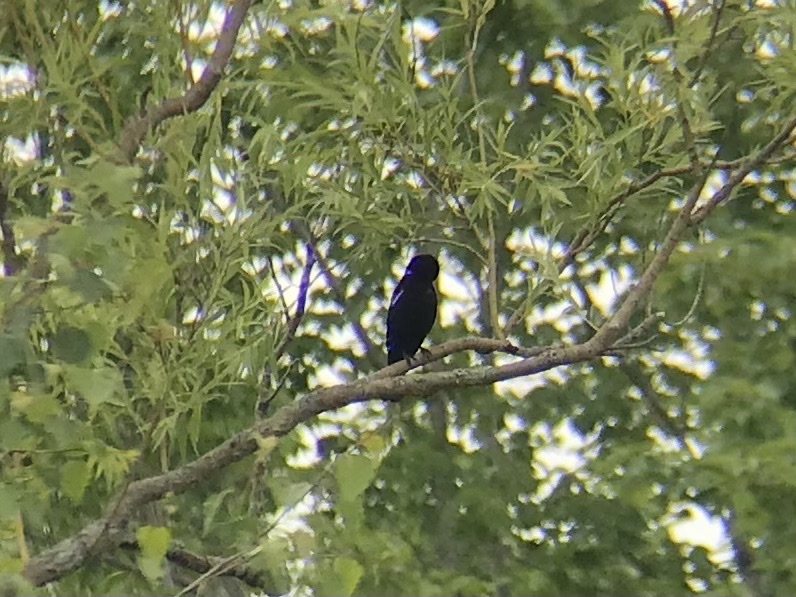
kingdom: Animalia
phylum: Chordata
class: Aves
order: Passeriformes
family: Icteridae
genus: Agelaius
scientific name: Agelaius phoeniceus
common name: Red-winged blackbird
